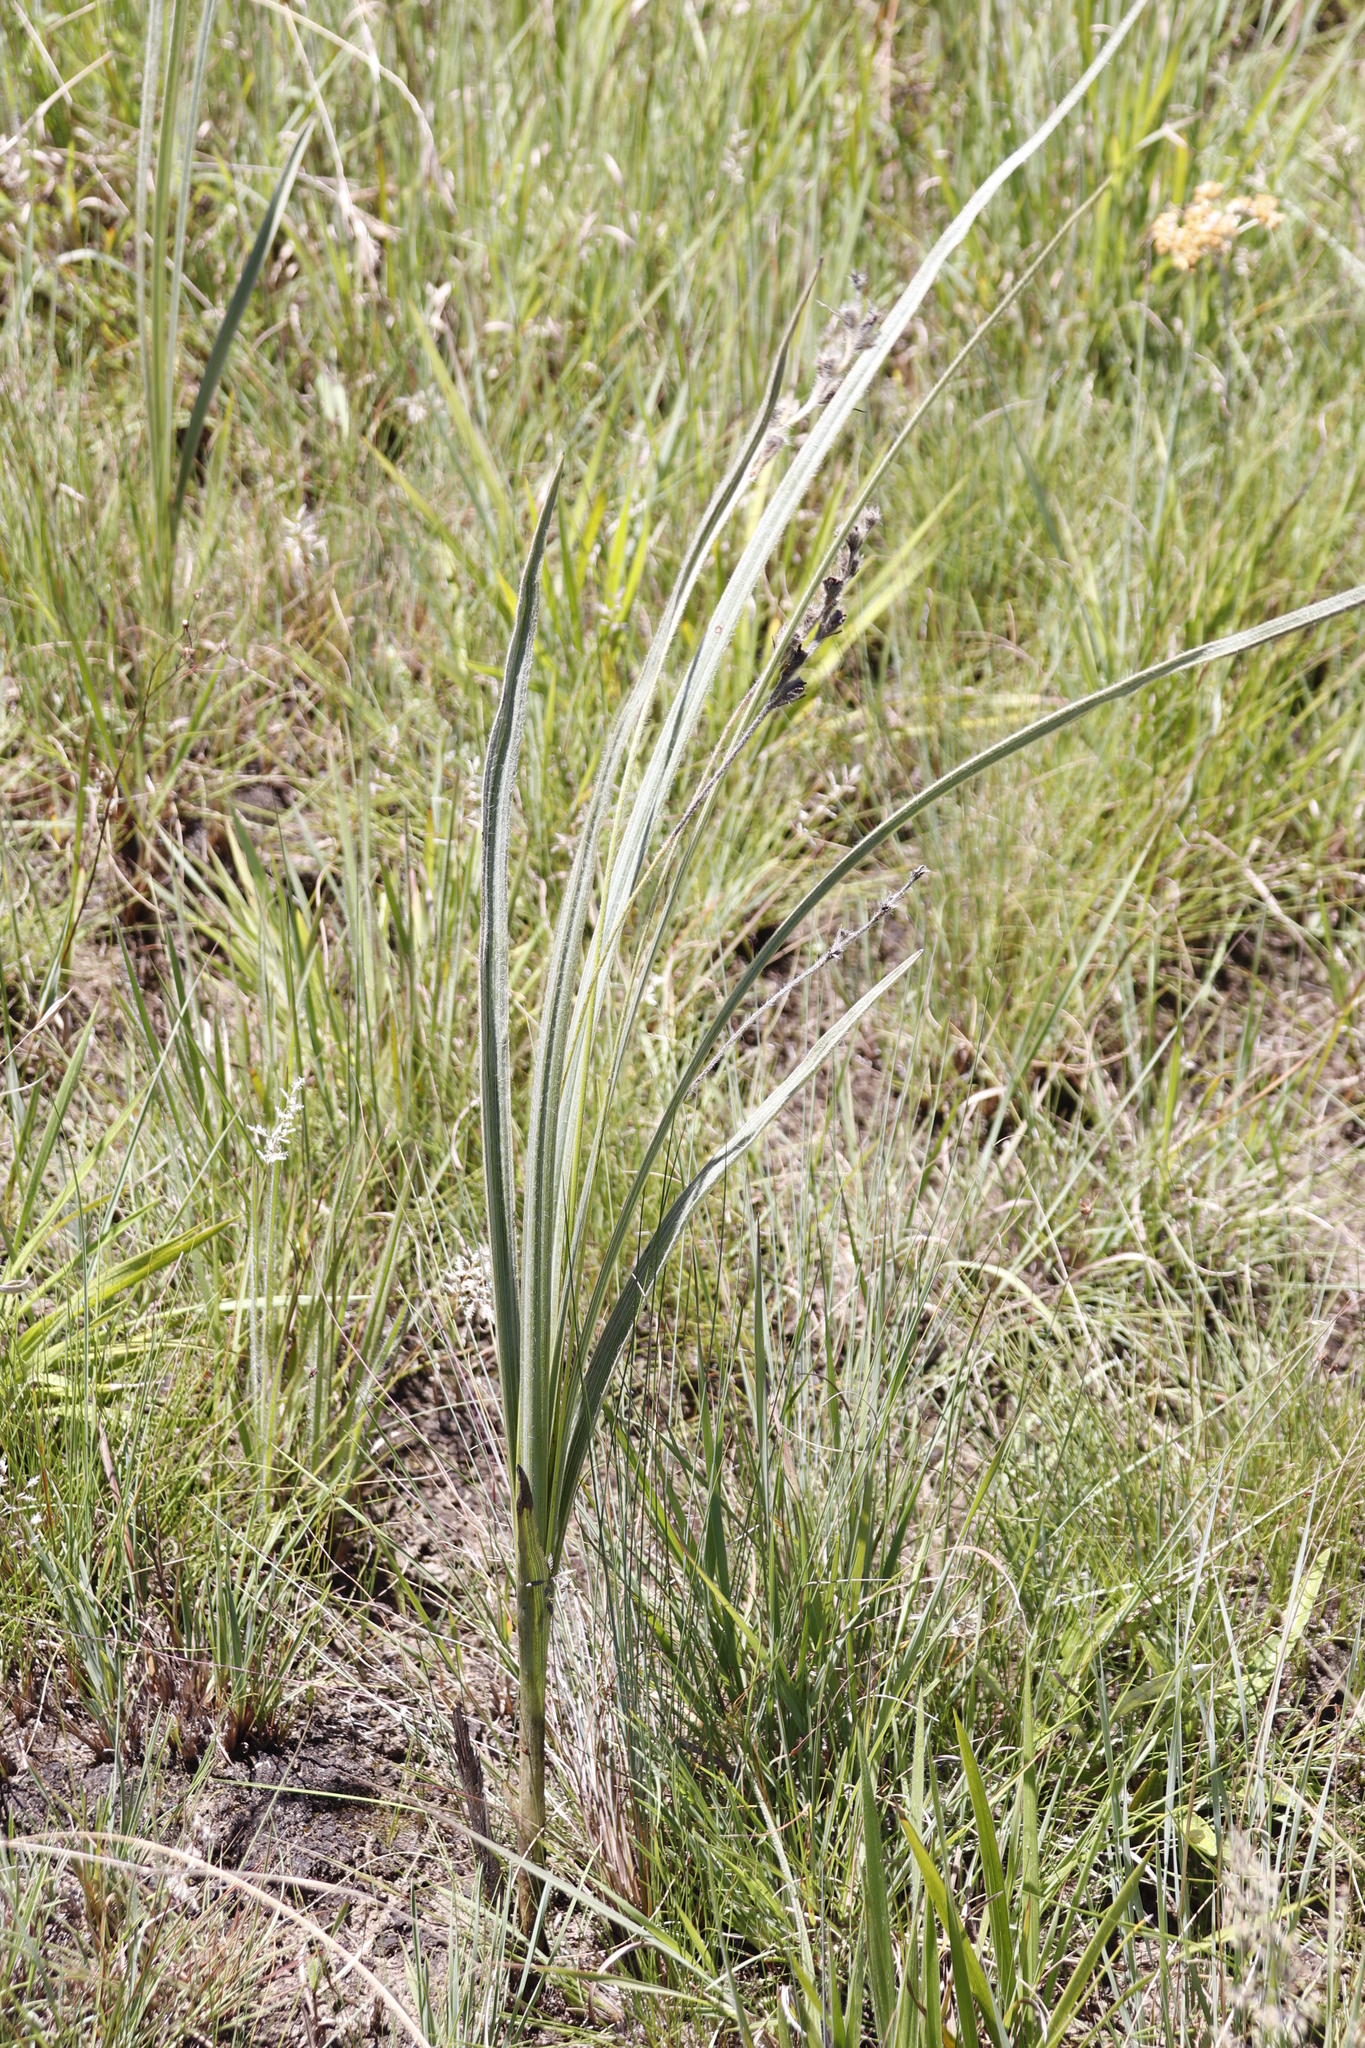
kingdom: Plantae
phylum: Tracheophyta
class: Liliopsida
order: Asparagales
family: Hypoxidaceae
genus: Hypoxis
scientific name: Hypoxis rigidula
